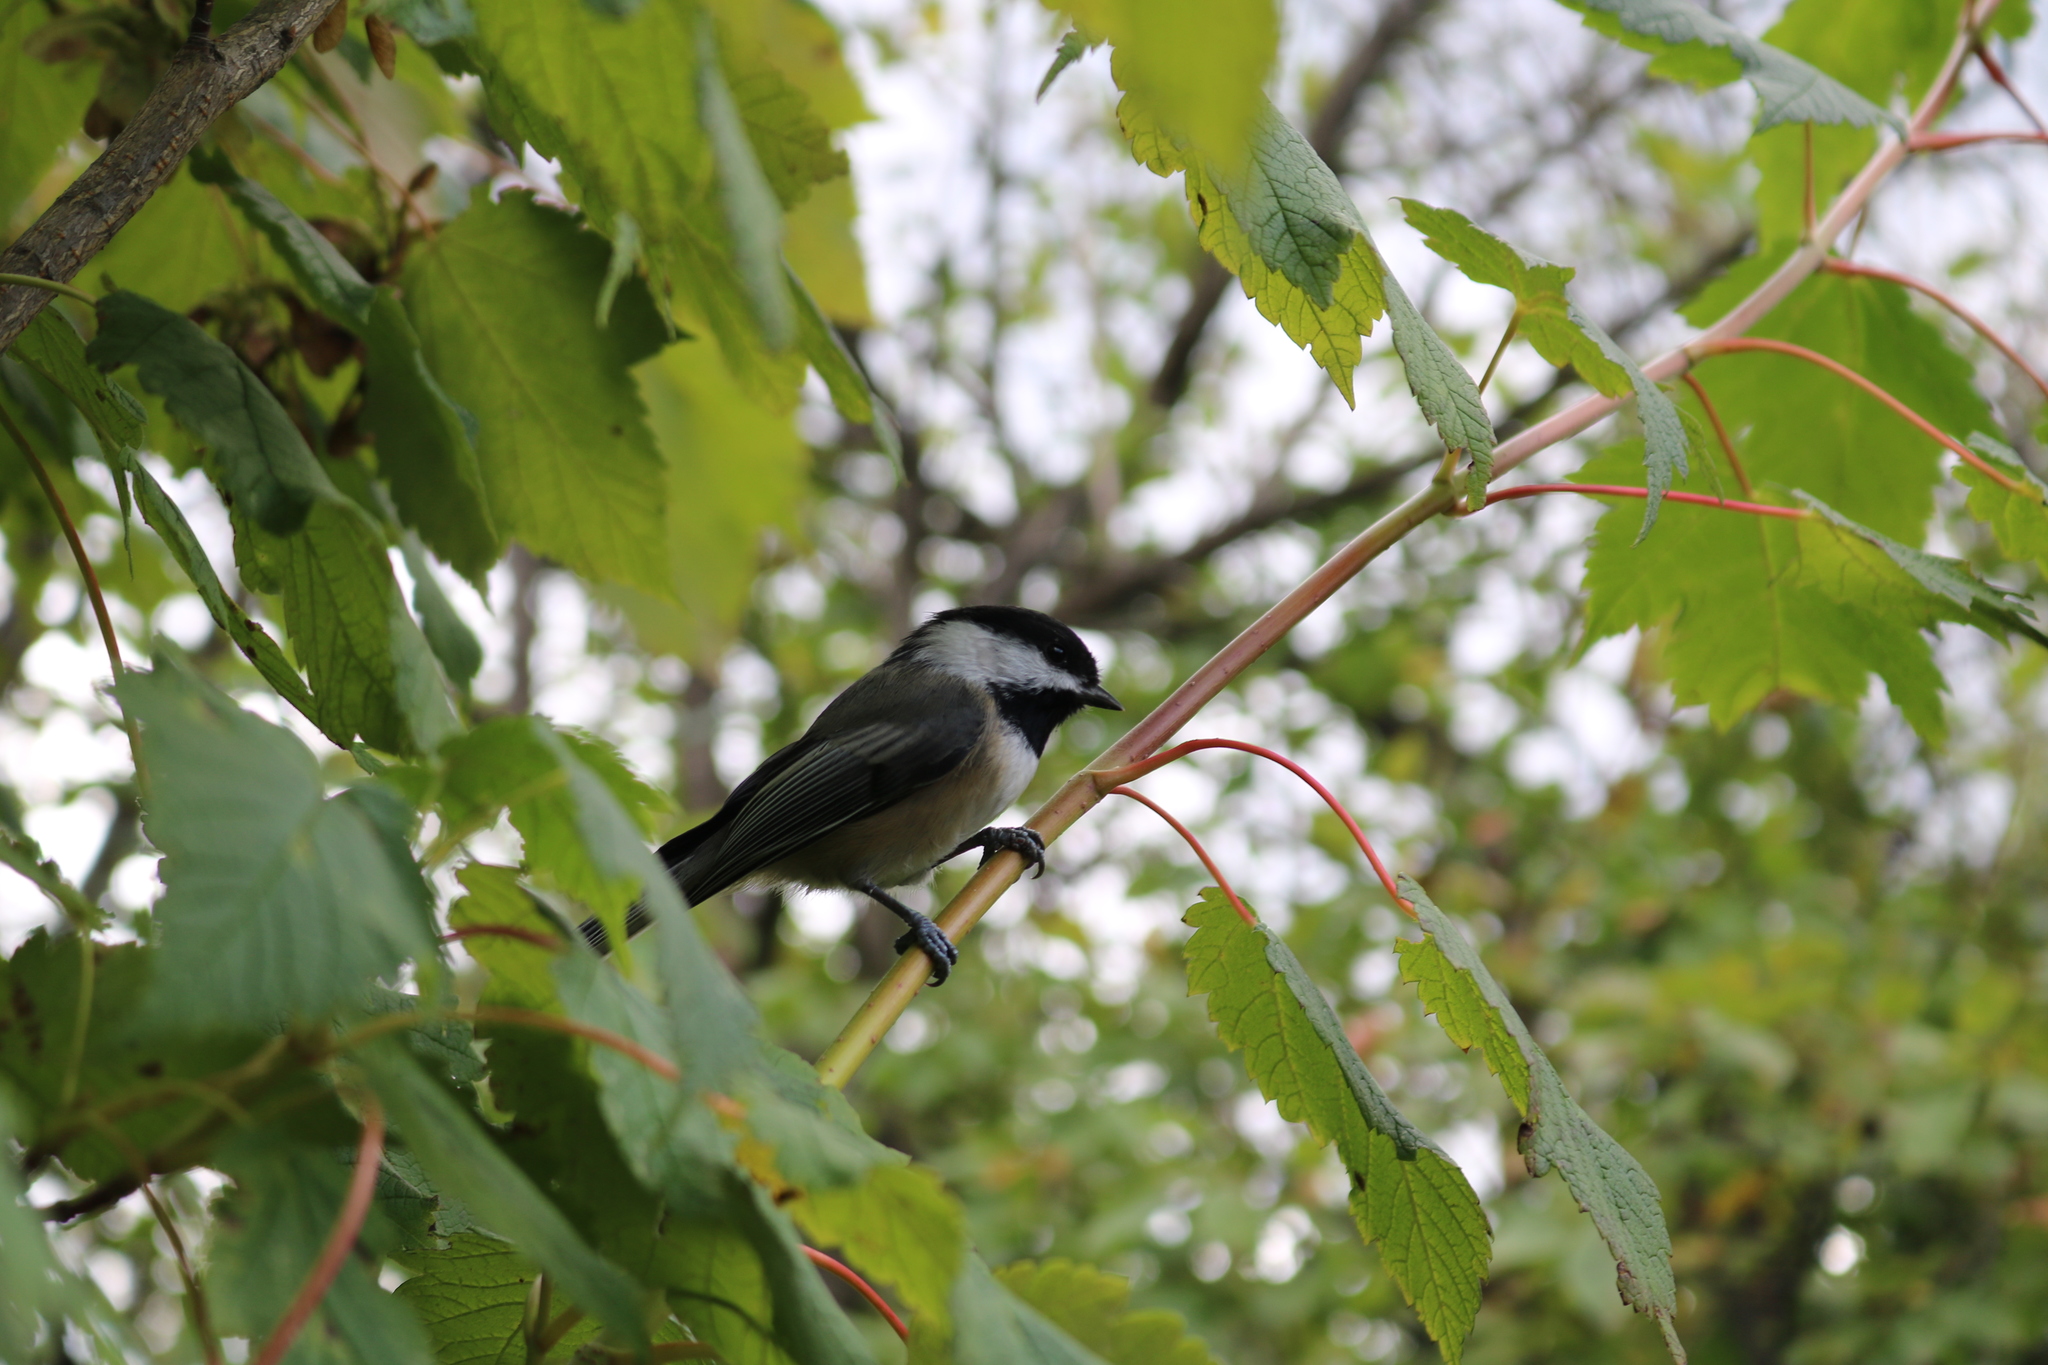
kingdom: Animalia
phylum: Chordata
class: Aves
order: Passeriformes
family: Paridae
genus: Poecile
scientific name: Poecile atricapillus
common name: Black-capped chickadee
